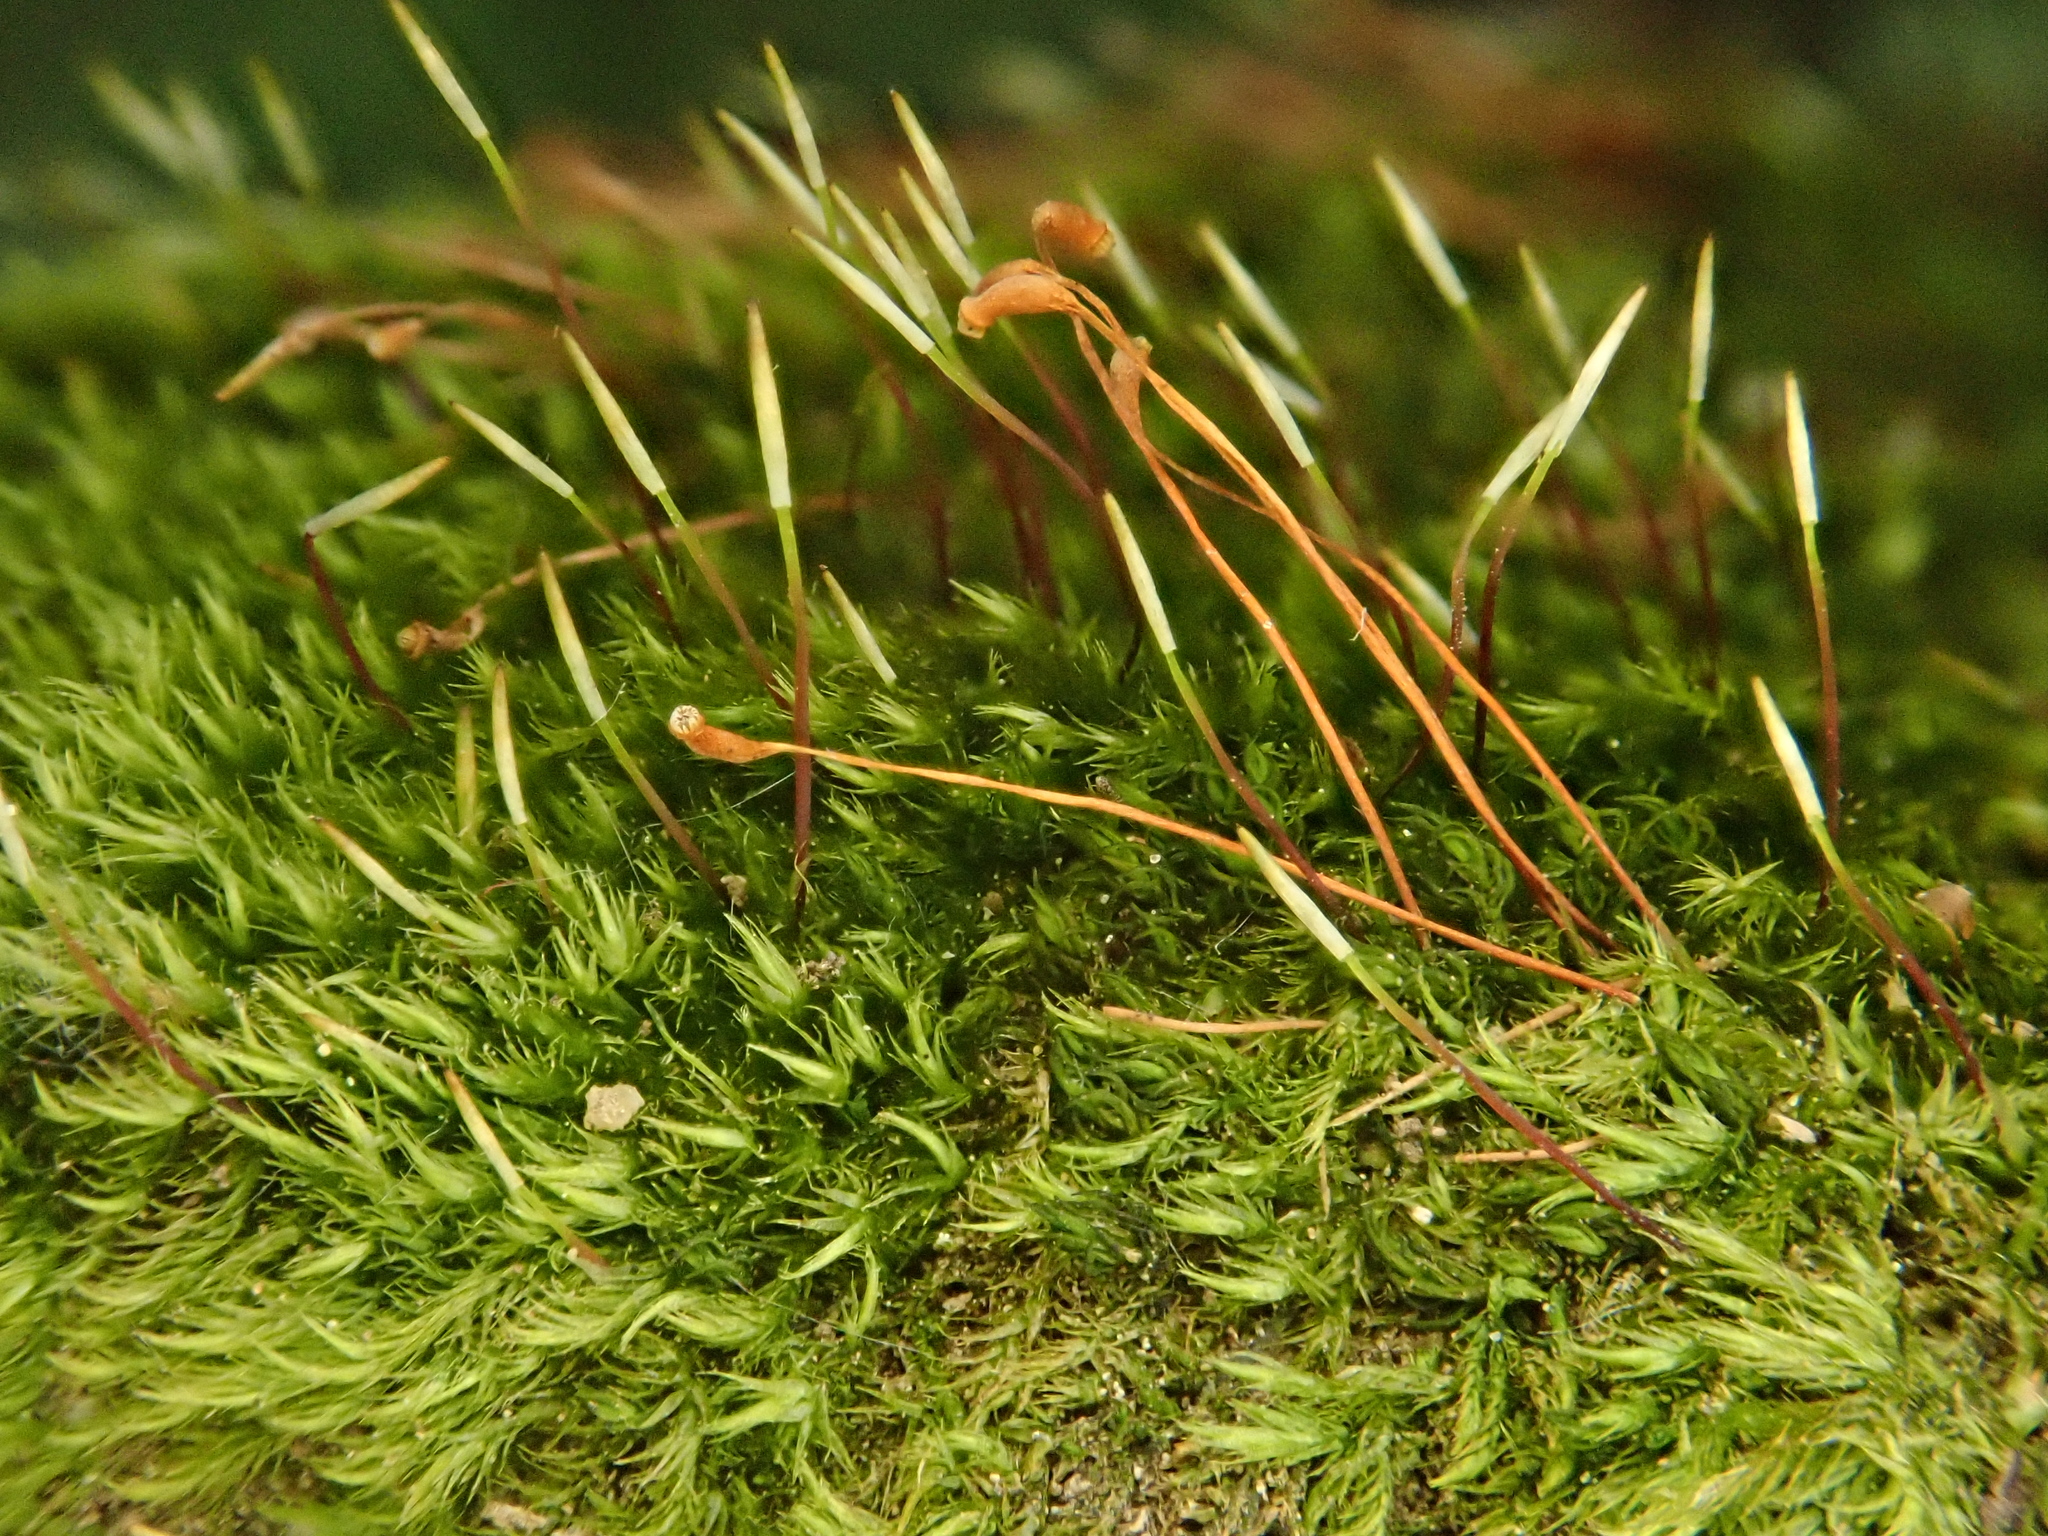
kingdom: Plantae
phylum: Bryophyta
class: Bryopsida
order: Hypnales
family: Pylaisiaceae
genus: Homomallium
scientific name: Homomallium incurvatum
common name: Incurved feather-moss
